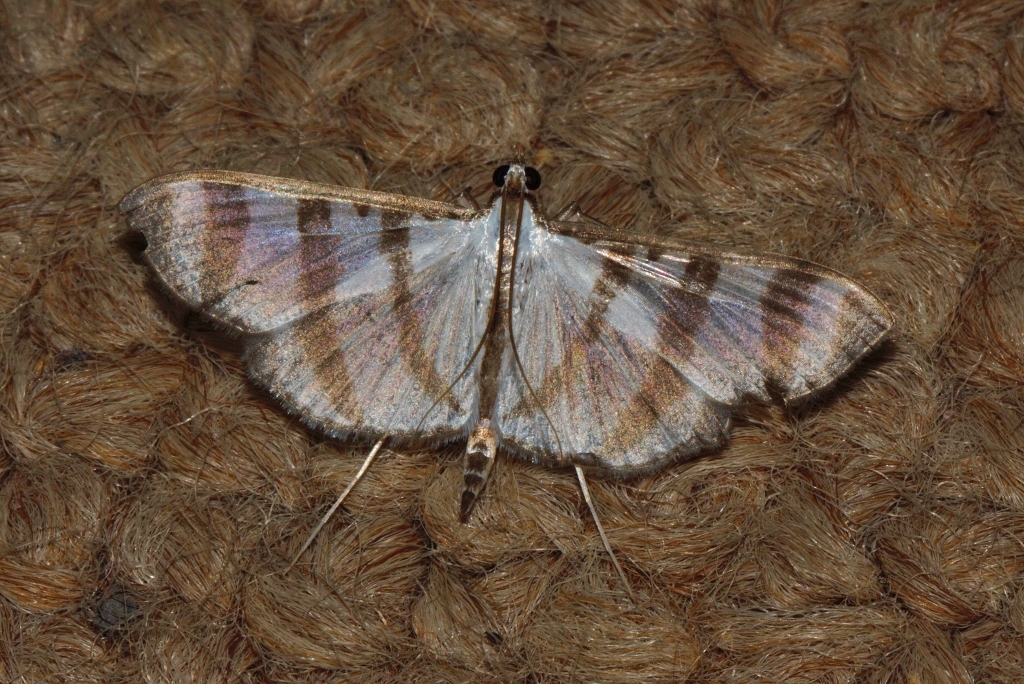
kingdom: Animalia
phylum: Arthropoda
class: Insecta
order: Lepidoptera
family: Crambidae
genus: Zebronia
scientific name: Zebronia phenice
